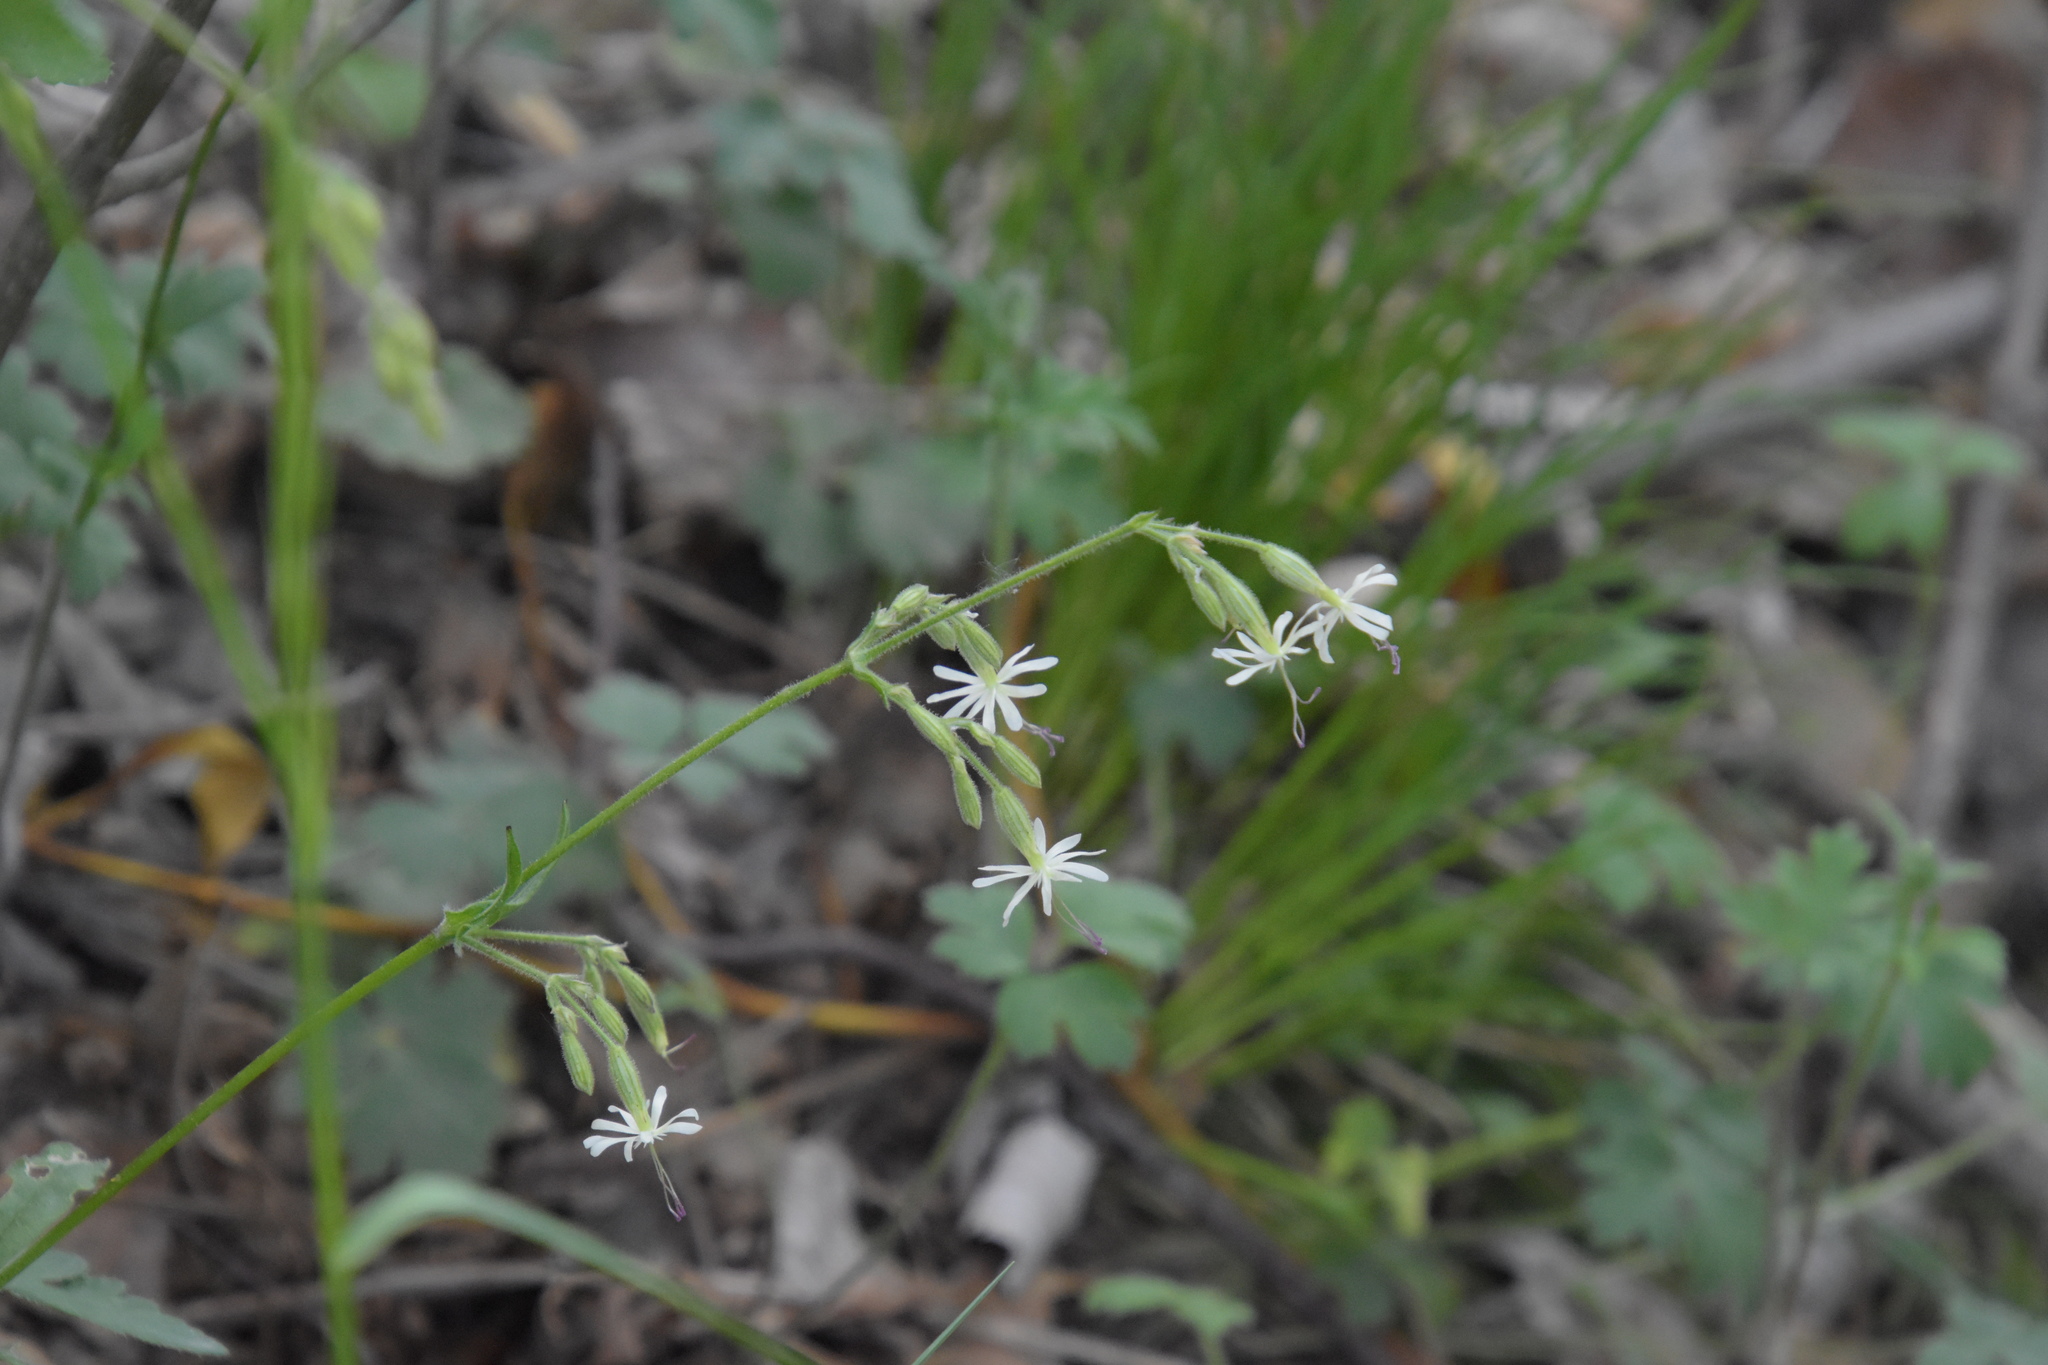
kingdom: Plantae
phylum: Tracheophyta
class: Magnoliopsida
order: Caryophyllales
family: Caryophyllaceae
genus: Silene
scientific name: Silene nutans
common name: Nottingham catchfly
